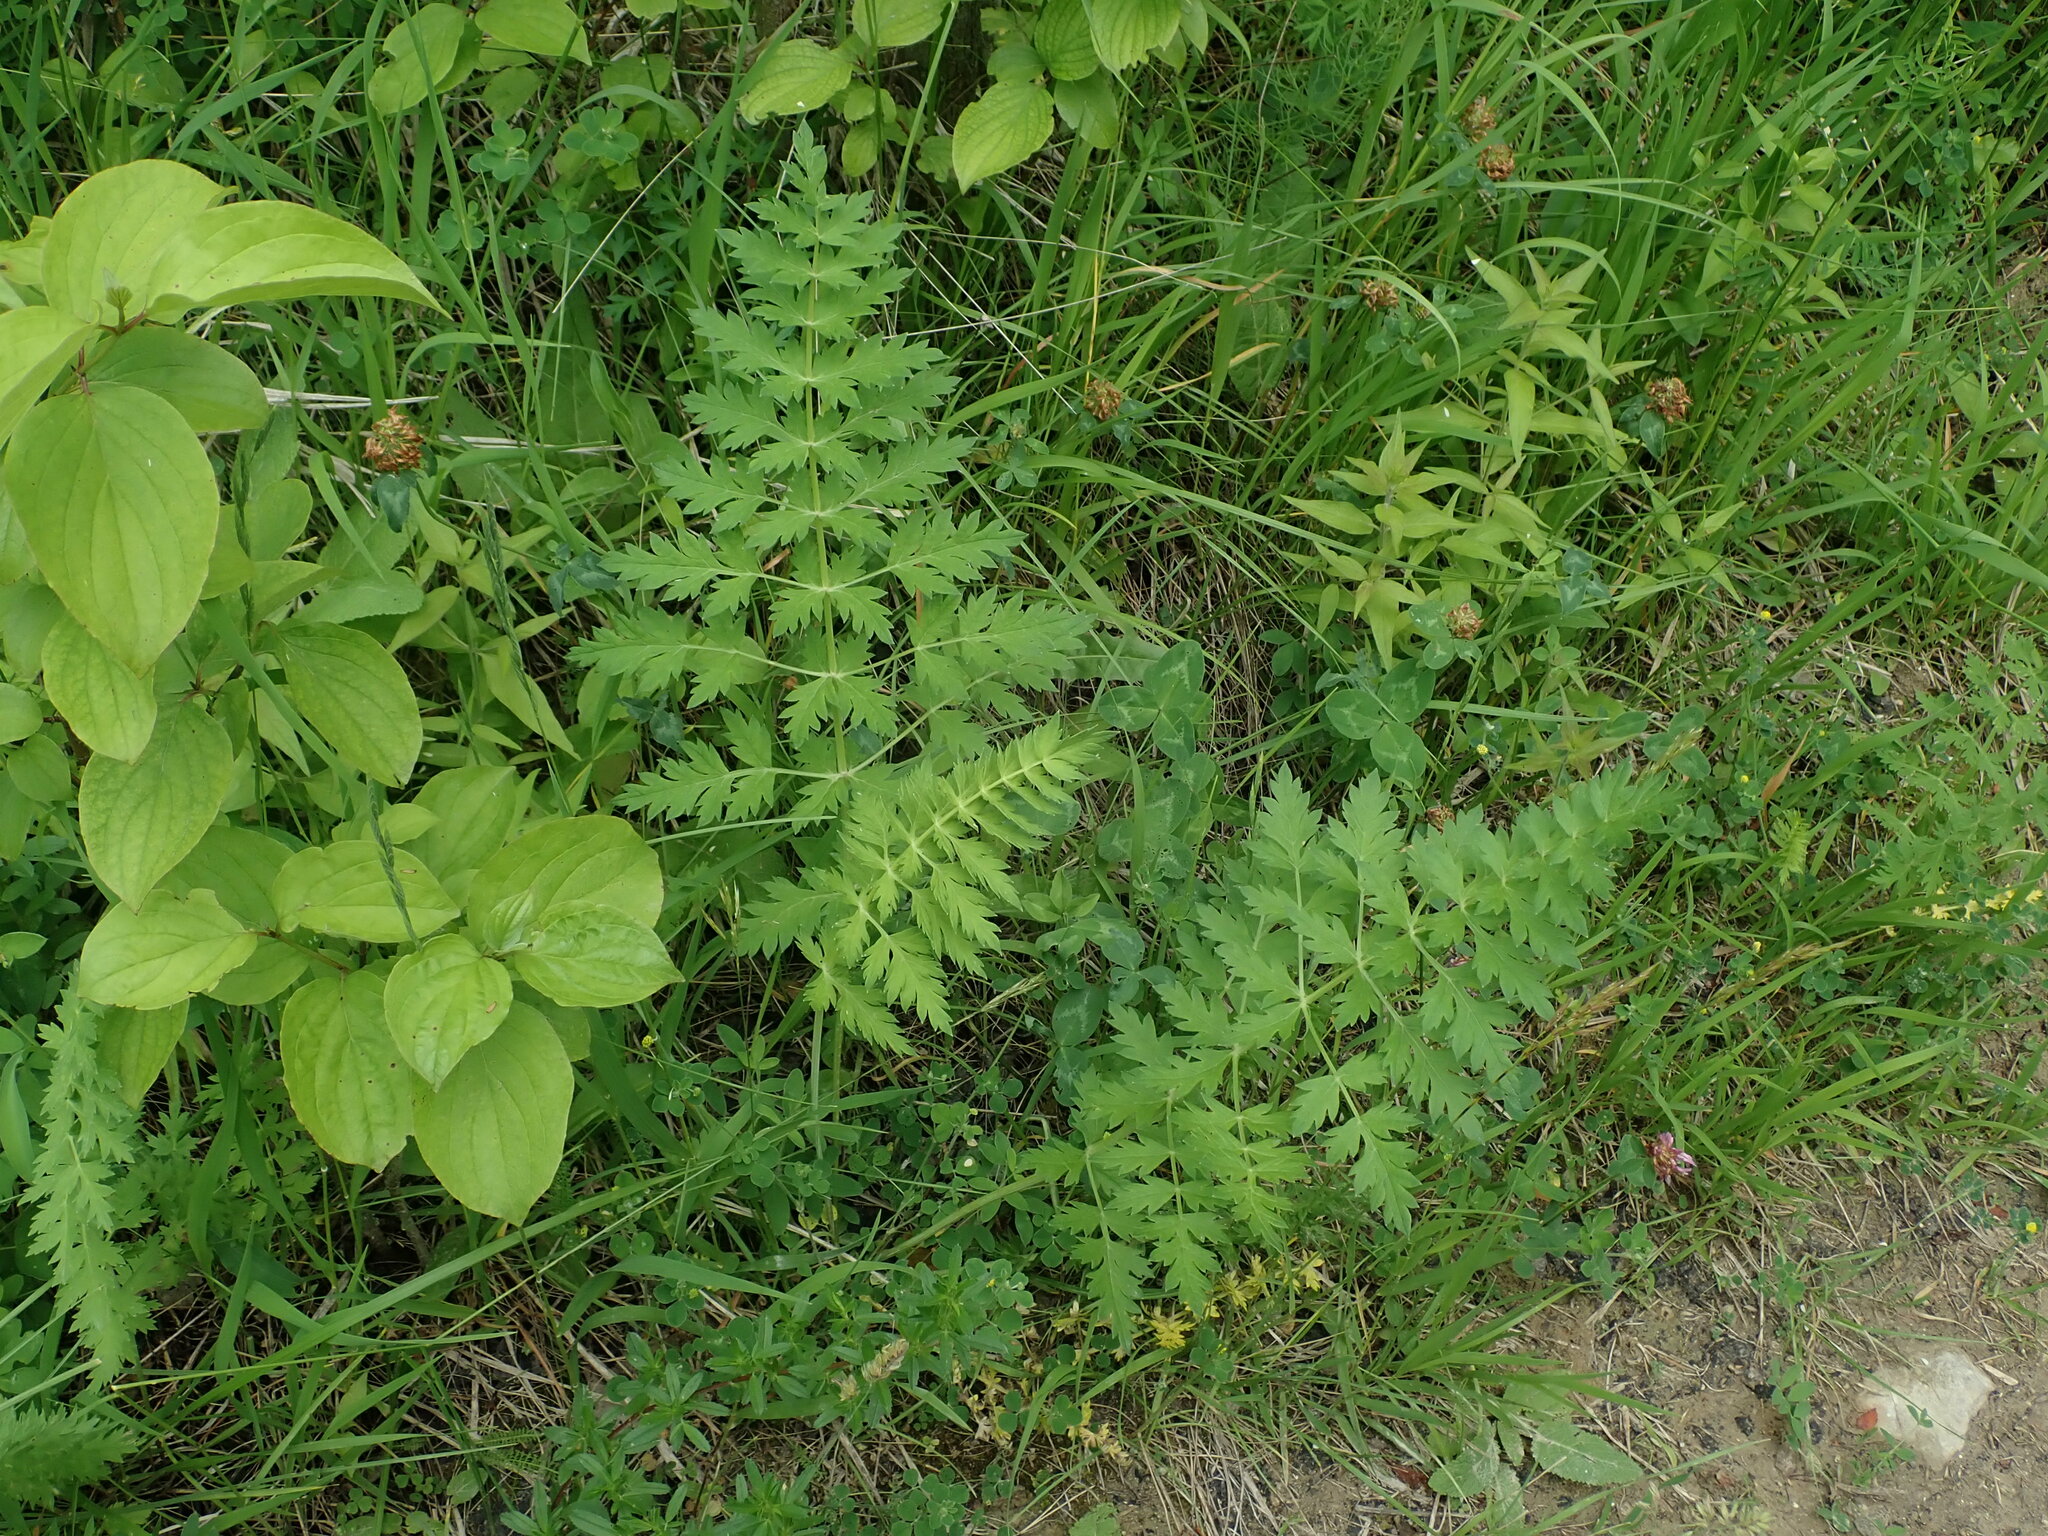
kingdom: Plantae
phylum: Tracheophyta
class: Magnoliopsida
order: Apiales
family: Apiaceae
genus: Seseli
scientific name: Seseli libanotis
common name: Mooncarrot
